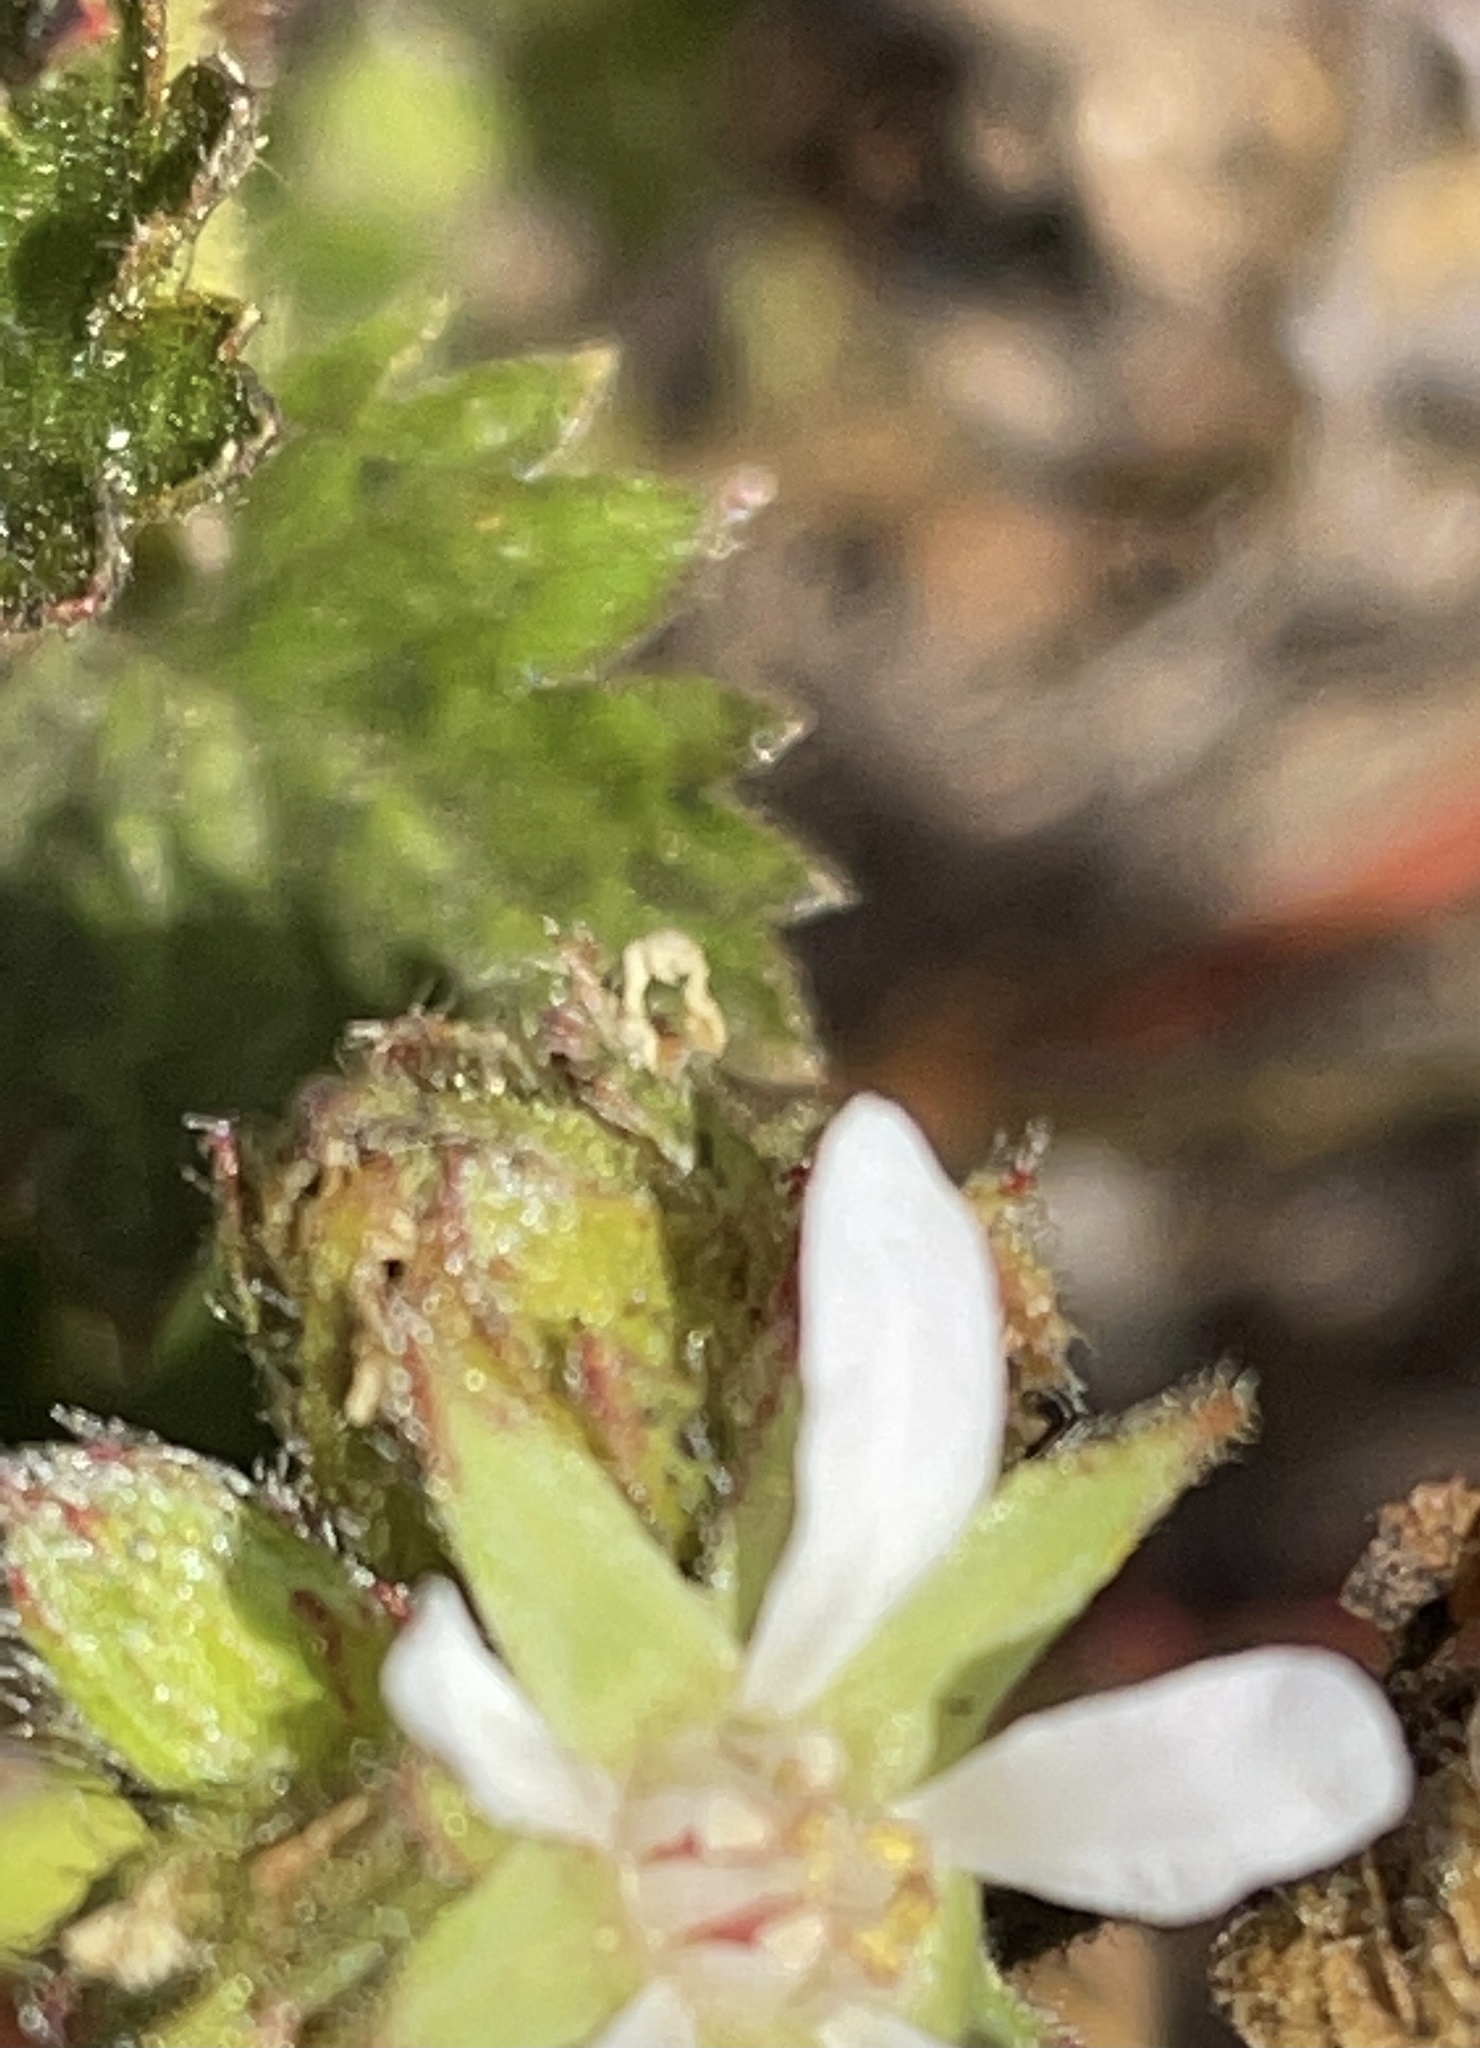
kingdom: Plantae
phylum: Tracheophyta
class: Magnoliopsida
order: Rosales
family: Rosaceae
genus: Potentilla
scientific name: Potentilla
